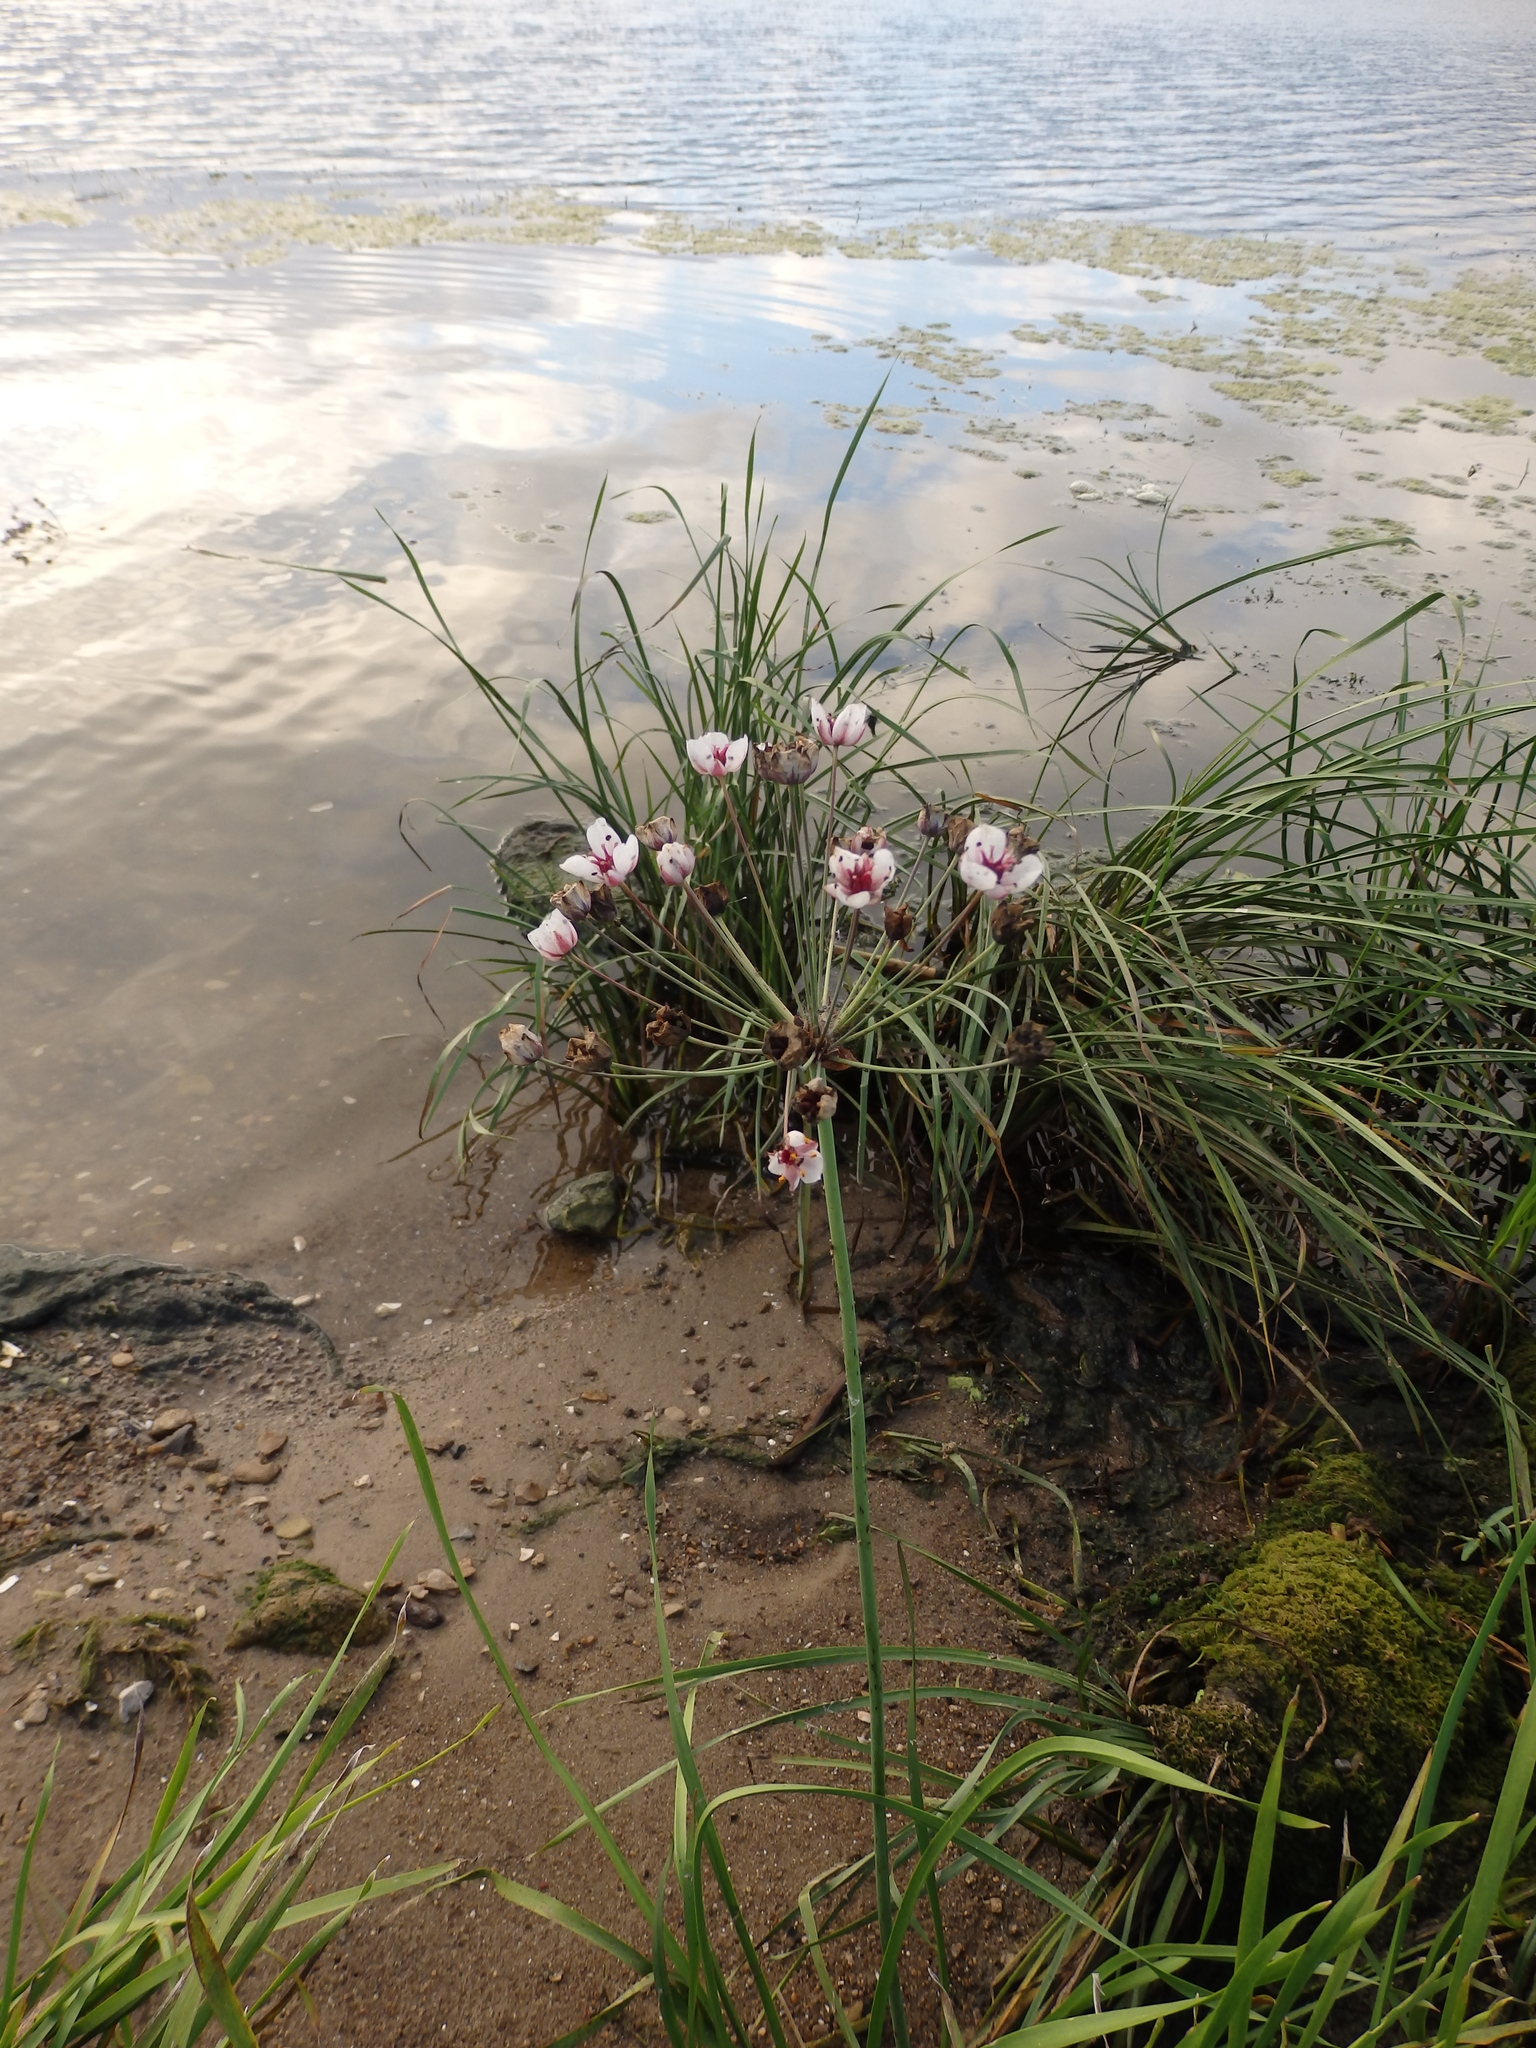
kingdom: Plantae
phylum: Tracheophyta
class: Liliopsida
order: Alismatales
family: Butomaceae
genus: Butomus
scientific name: Butomus umbellatus
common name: Flowering-rush
